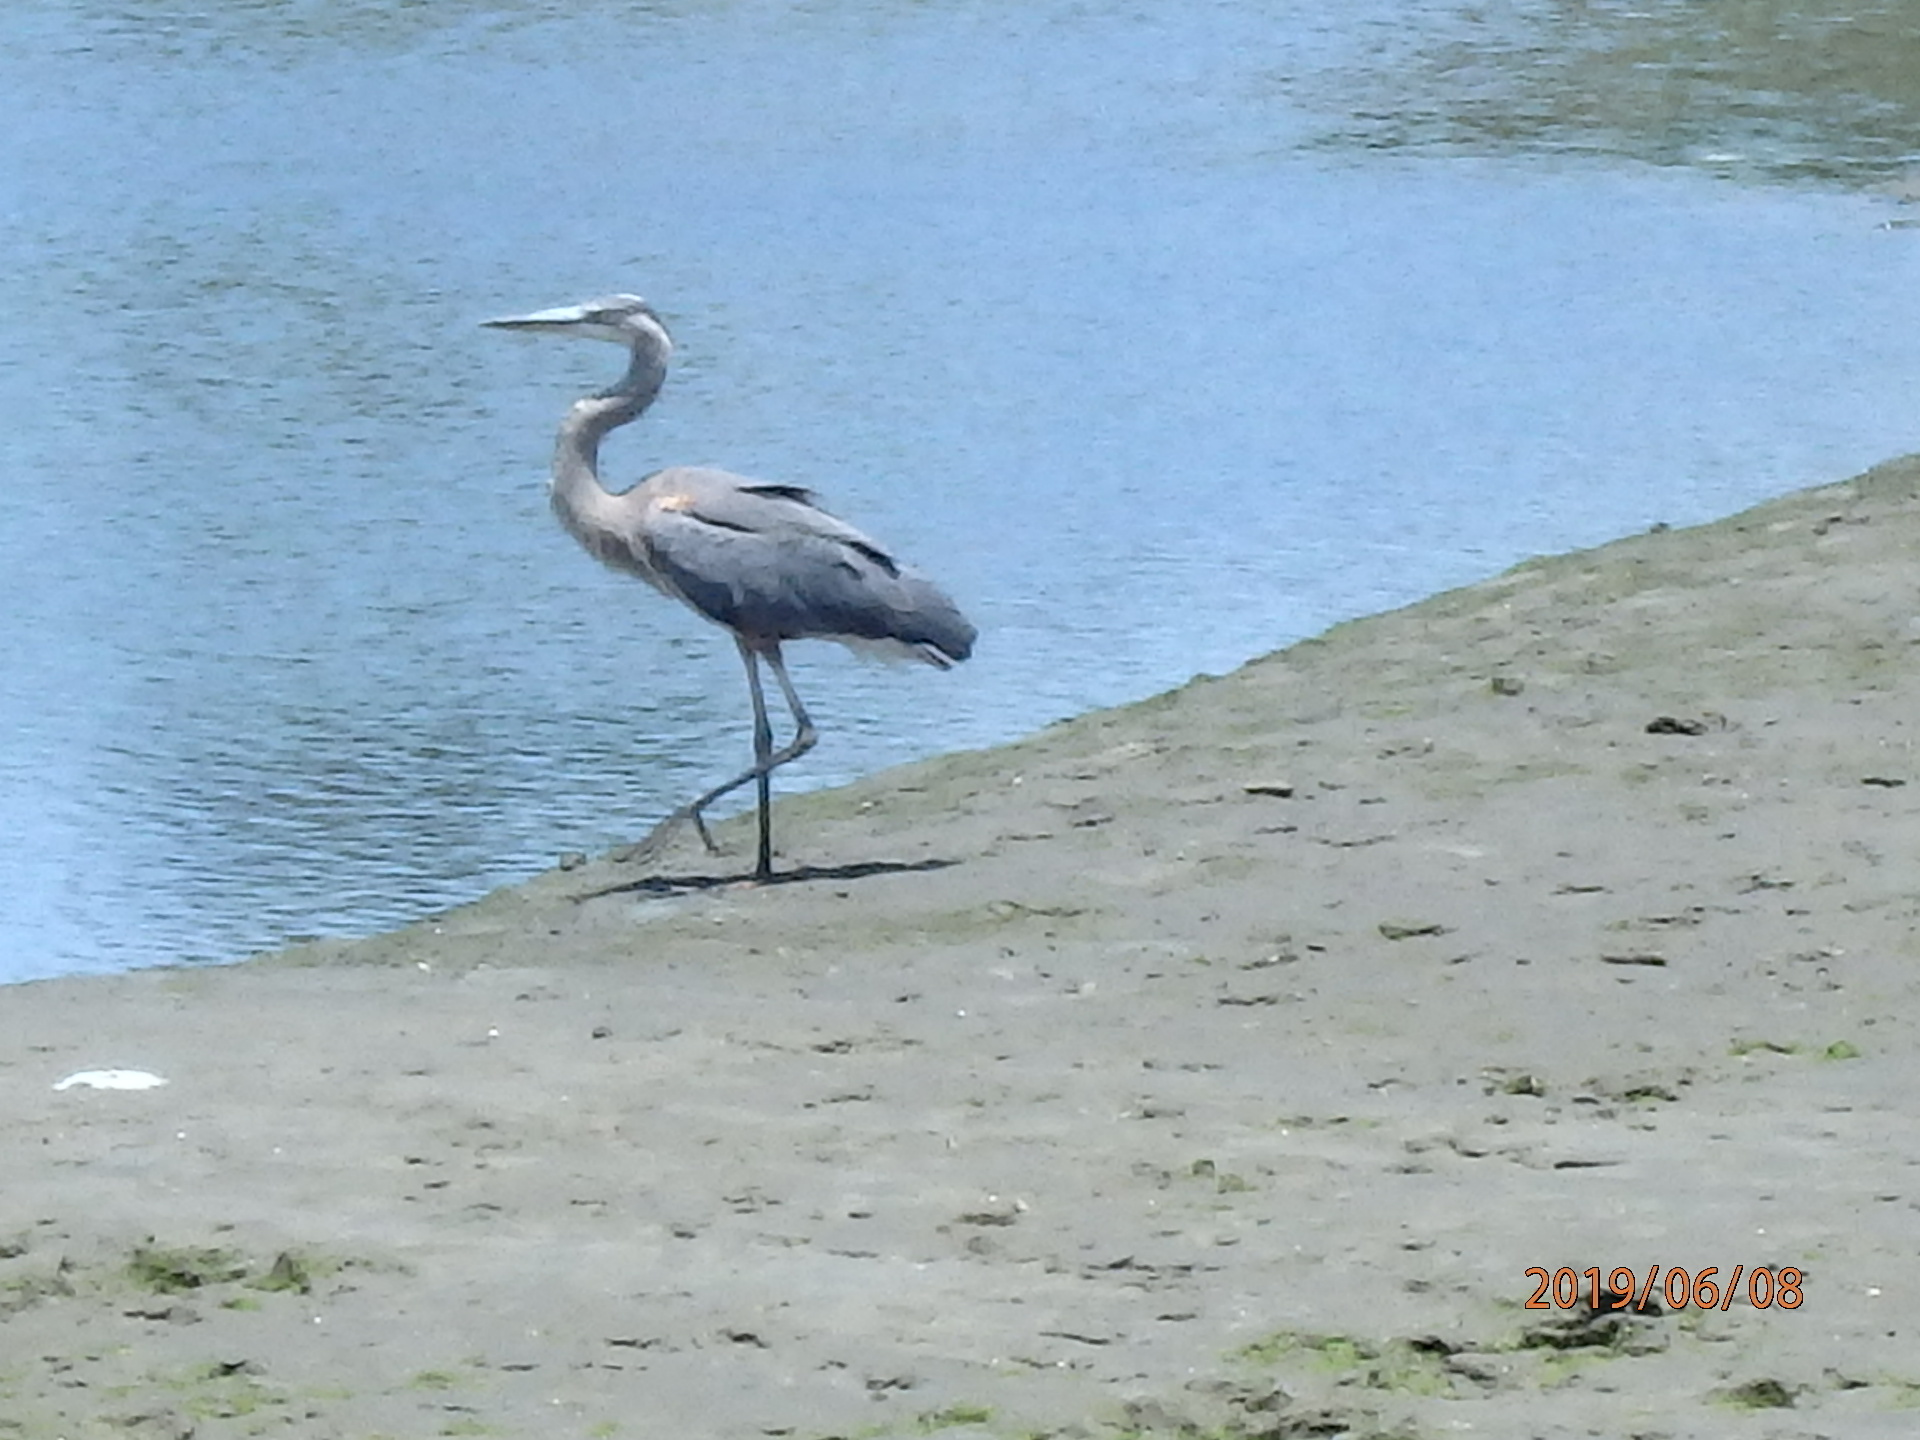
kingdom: Animalia
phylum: Chordata
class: Aves
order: Pelecaniformes
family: Ardeidae
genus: Ardea
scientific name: Ardea herodias
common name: Great blue heron
